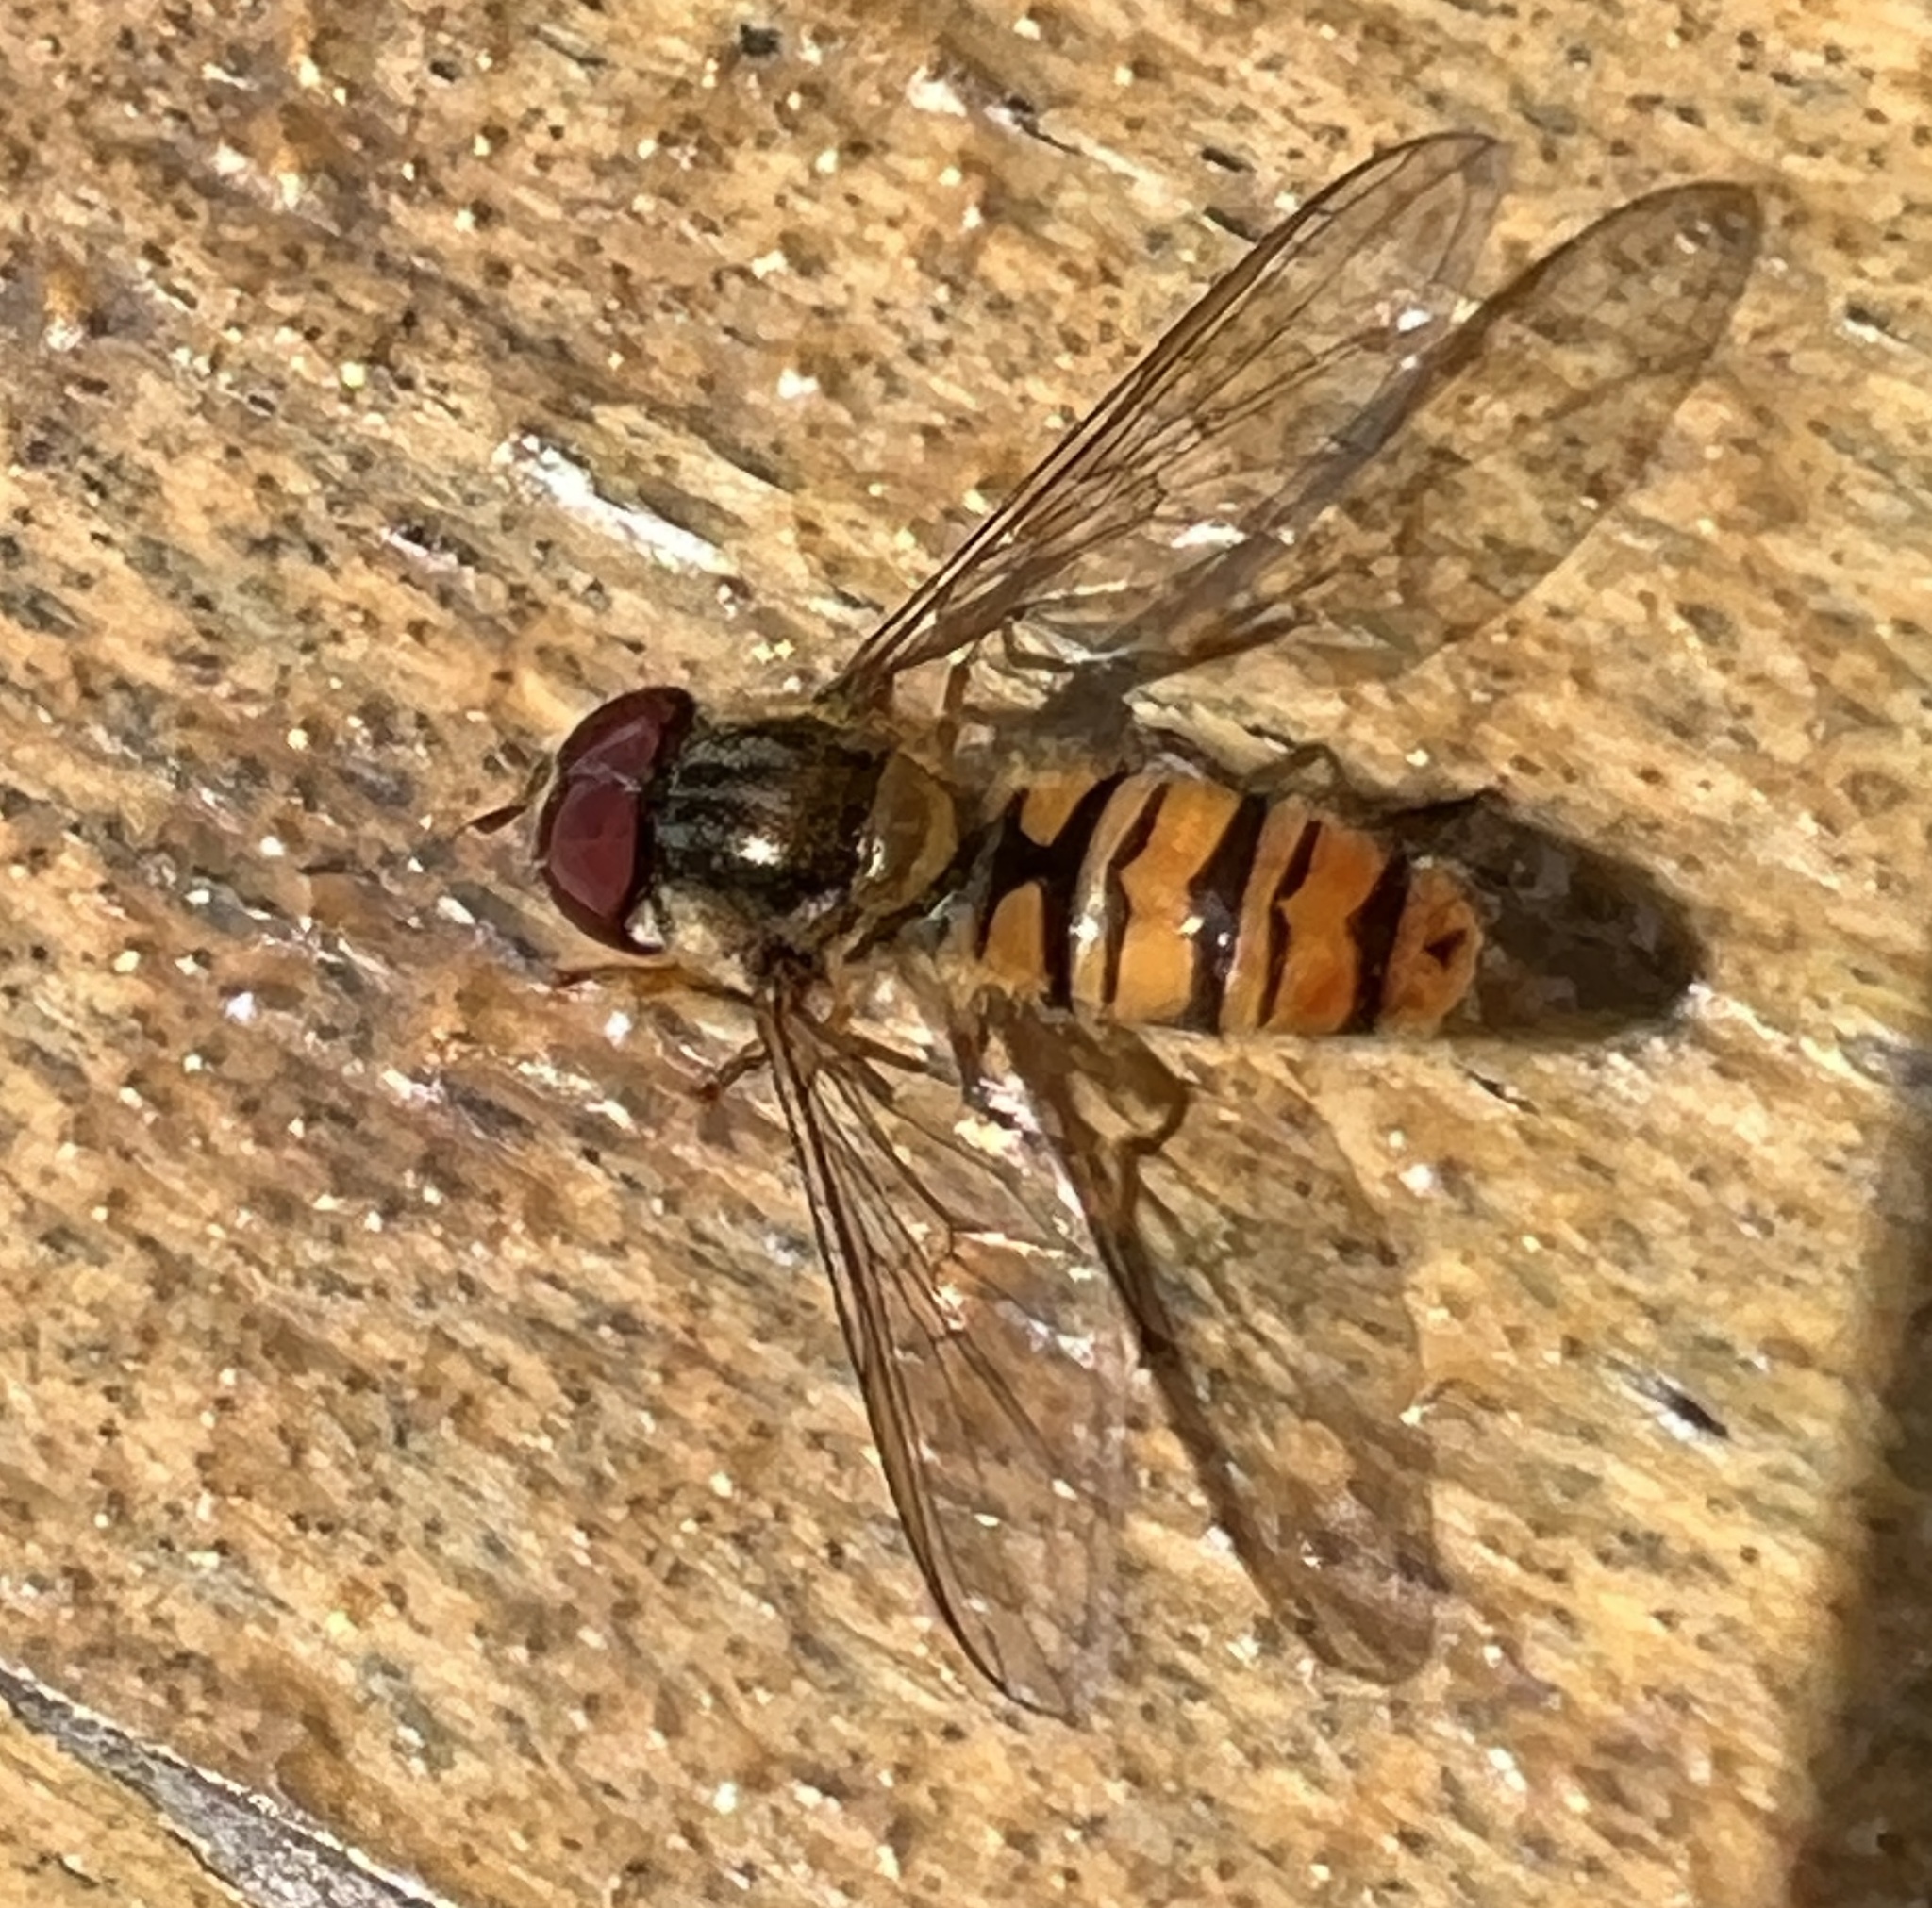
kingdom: Animalia
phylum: Arthropoda
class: Insecta
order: Diptera
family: Syrphidae
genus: Episyrphus
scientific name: Episyrphus balteatus
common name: Marmalade hoverfly
